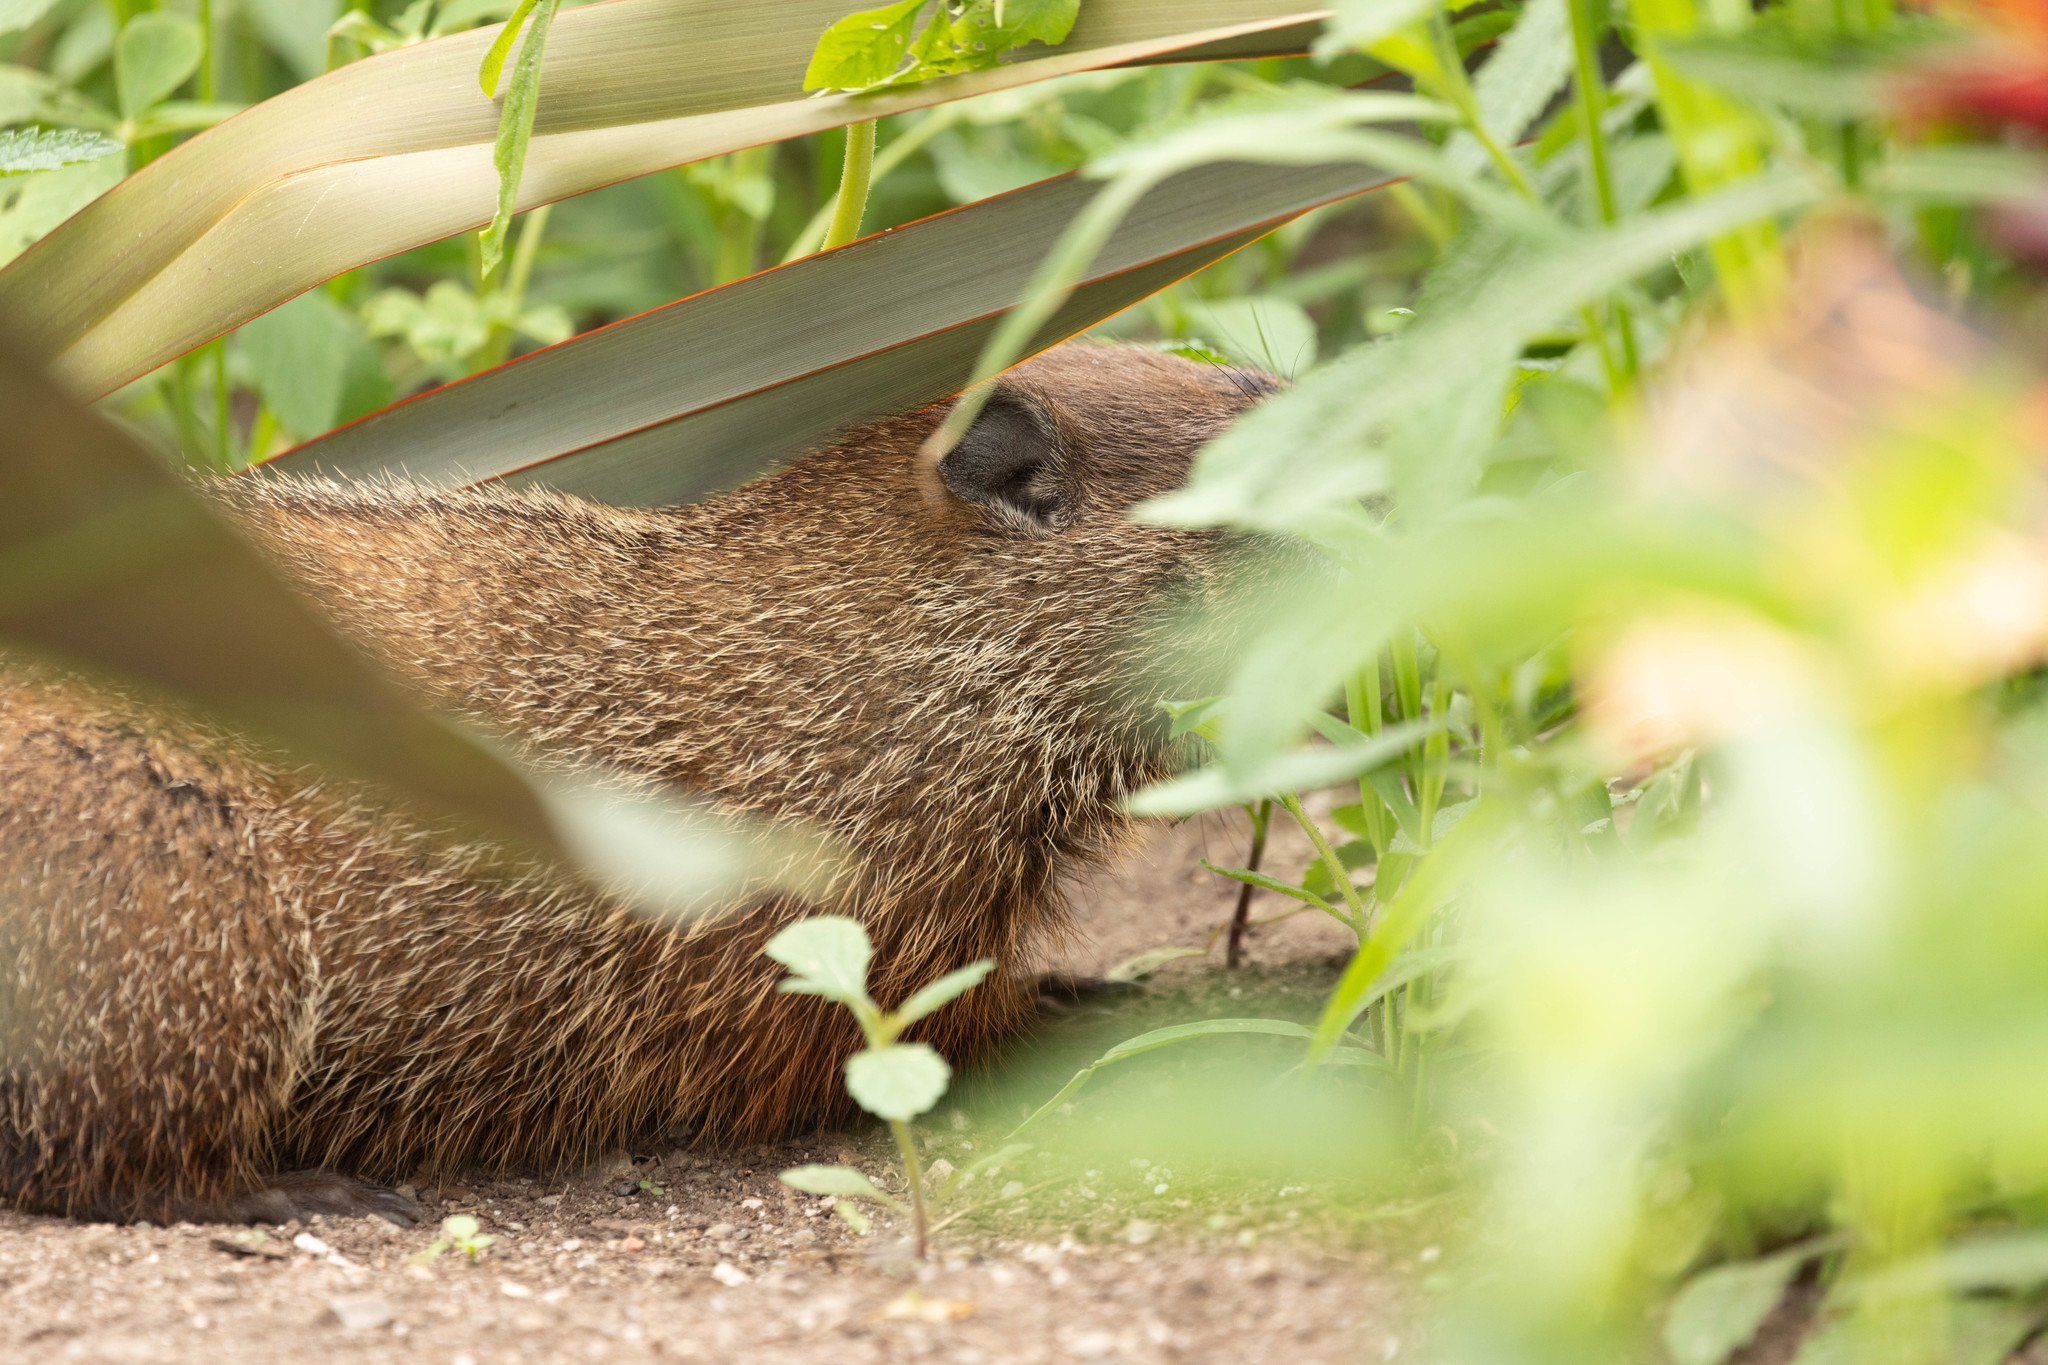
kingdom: Animalia
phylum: Chordata
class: Mammalia
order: Rodentia
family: Sciuridae
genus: Marmota
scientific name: Marmota monax
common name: Groundhog
